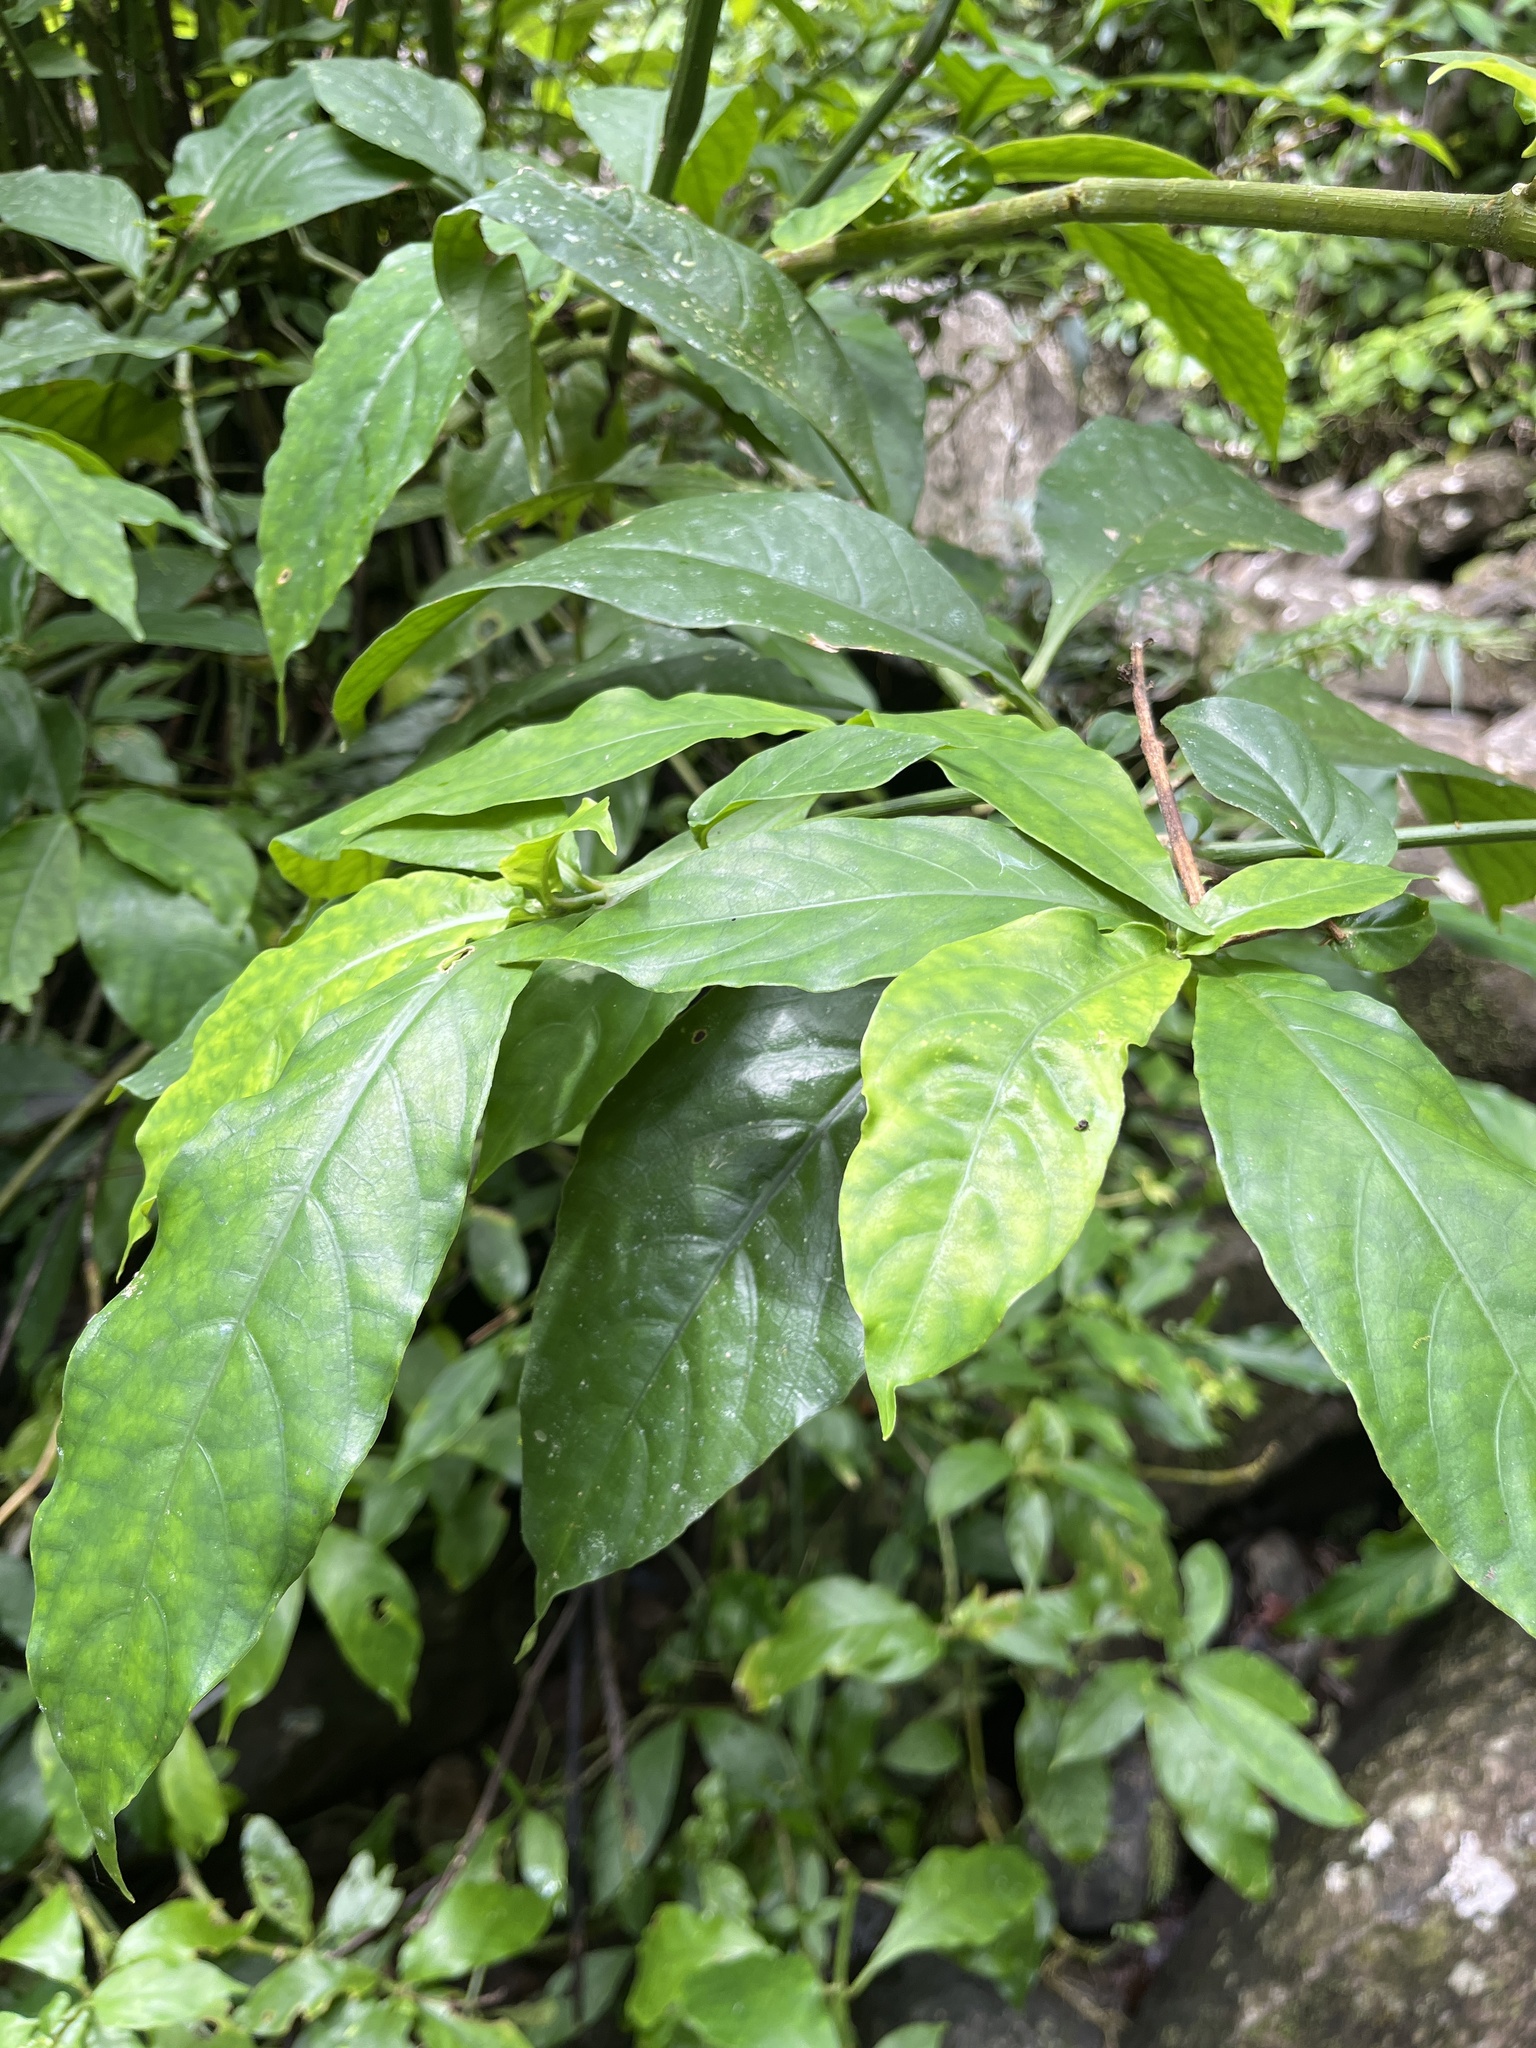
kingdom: Plantae
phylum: Tracheophyta
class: Magnoliopsida
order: Lamiales
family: Acanthaceae
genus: Odontonema
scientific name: Odontonema cuspidatum
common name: Mottled toothedthread
